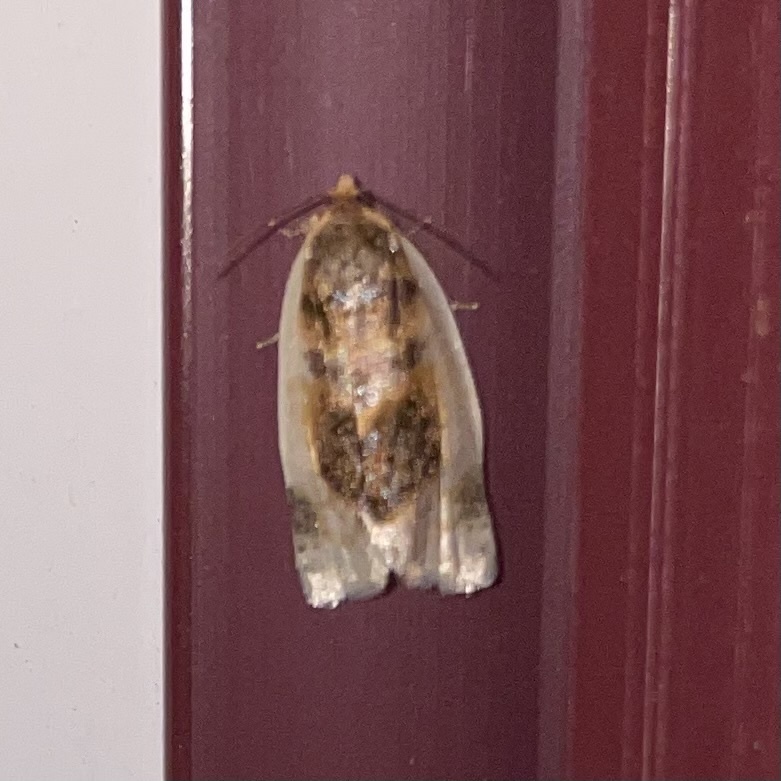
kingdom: Animalia
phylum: Arthropoda
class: Insecta
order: Lepidoptera
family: Tortricidae
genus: Clepsis
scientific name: Clepsis melaleucanus
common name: American apple tortrix
